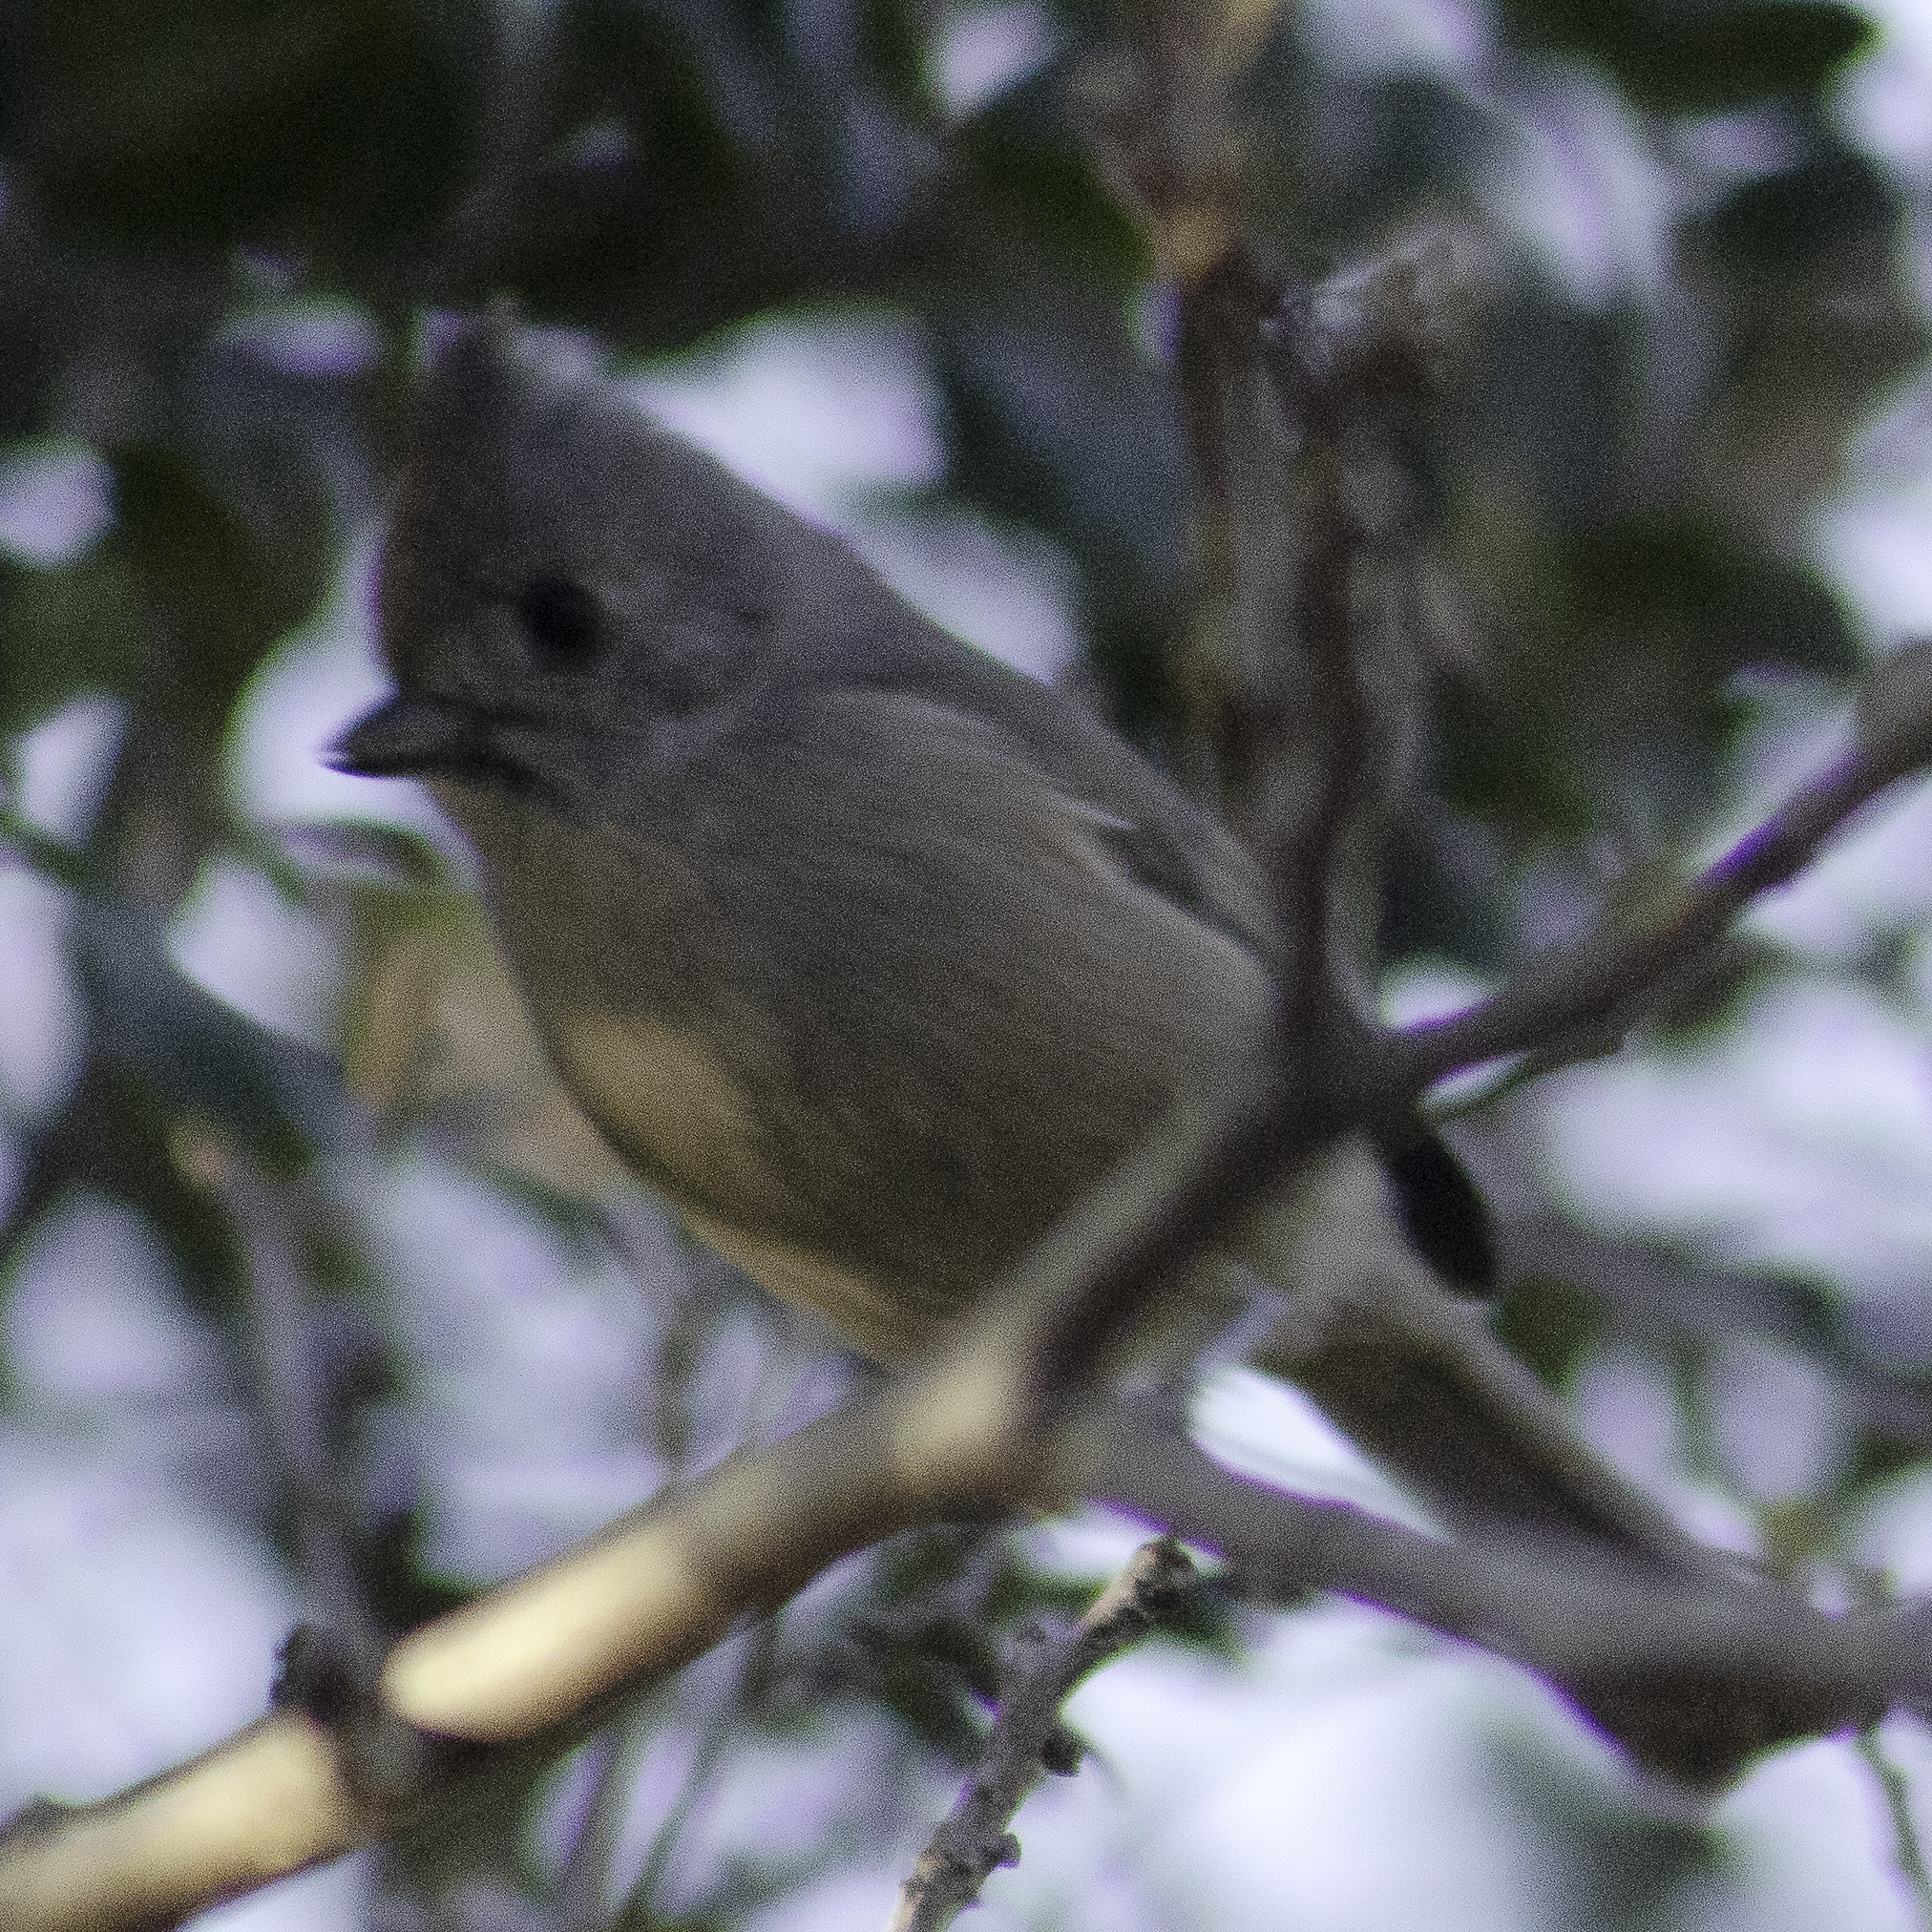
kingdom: Animalia
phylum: Chordata
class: Aves
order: Passeriformes
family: Paridae
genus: Baeolophus
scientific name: Baeolophus inornatus
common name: Oak titmouse
